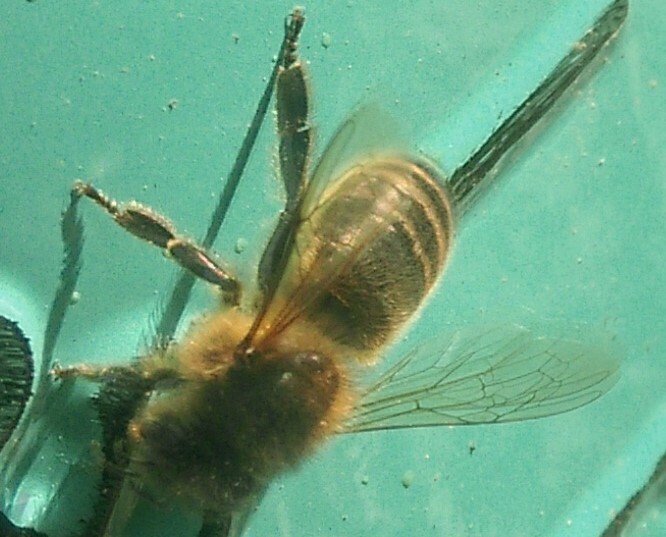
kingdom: Animalia
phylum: Arthropoda
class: Insecta
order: Hymenoptera
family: Apidae
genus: Apis
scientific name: Apis mellifera
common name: Honey bee
